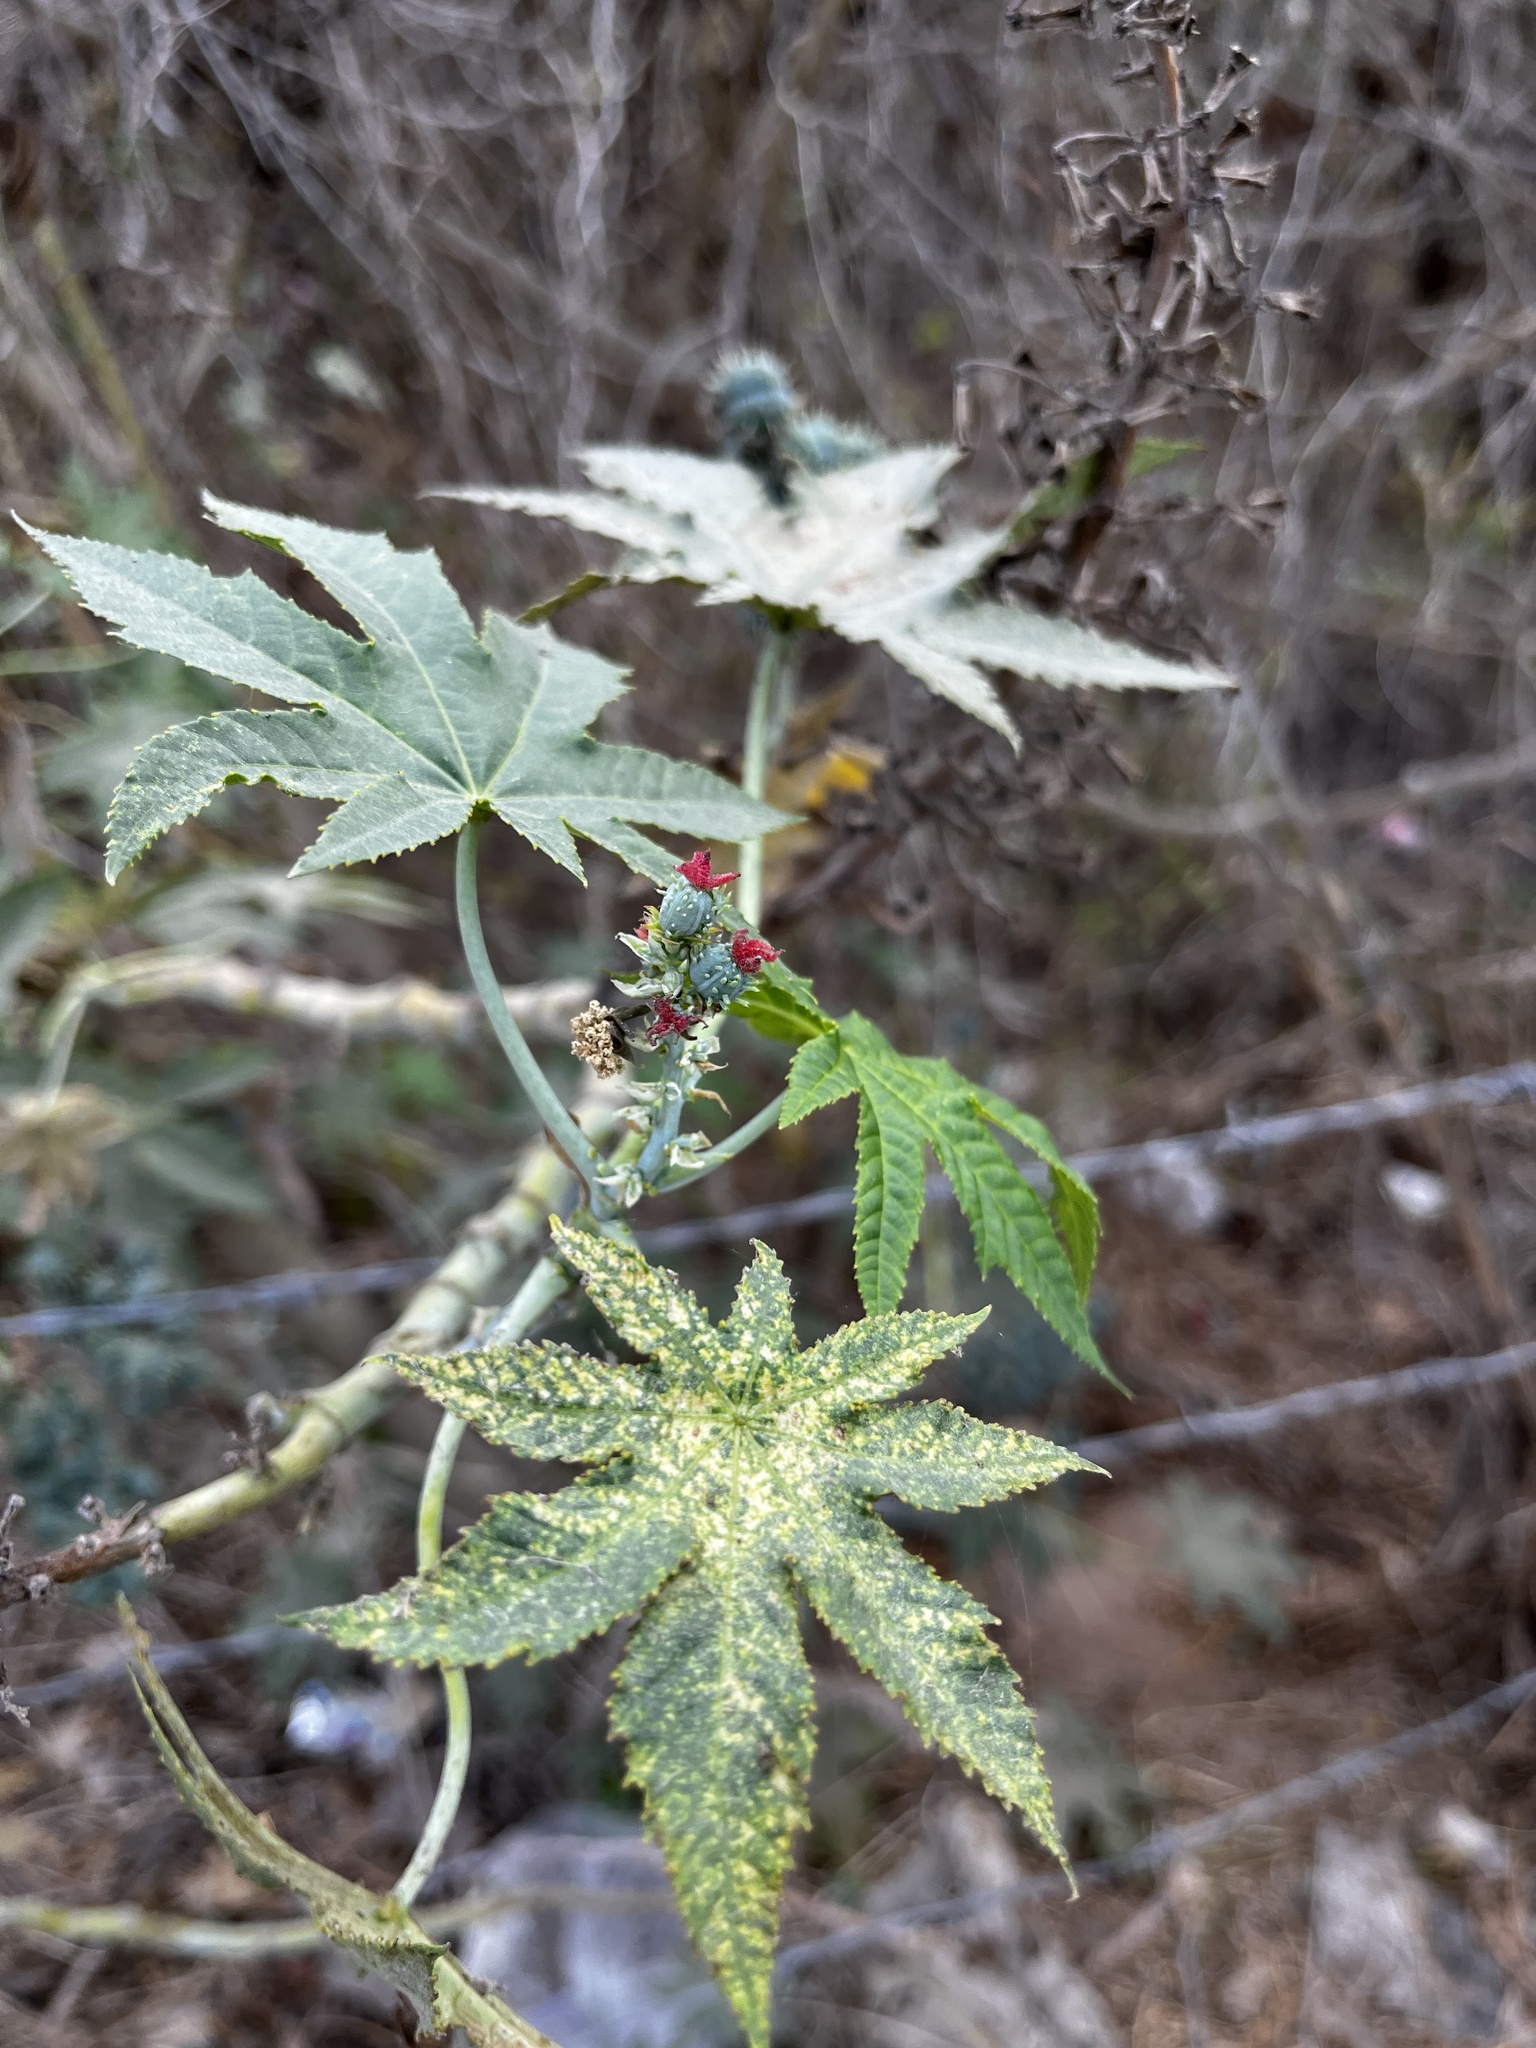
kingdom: Plantae
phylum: Tracheophyta
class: Magnoliopsida
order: Malpighiales
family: Euphorbiaceae
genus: Ricinus
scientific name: Ricinus communis
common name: Castor-oil-plant
